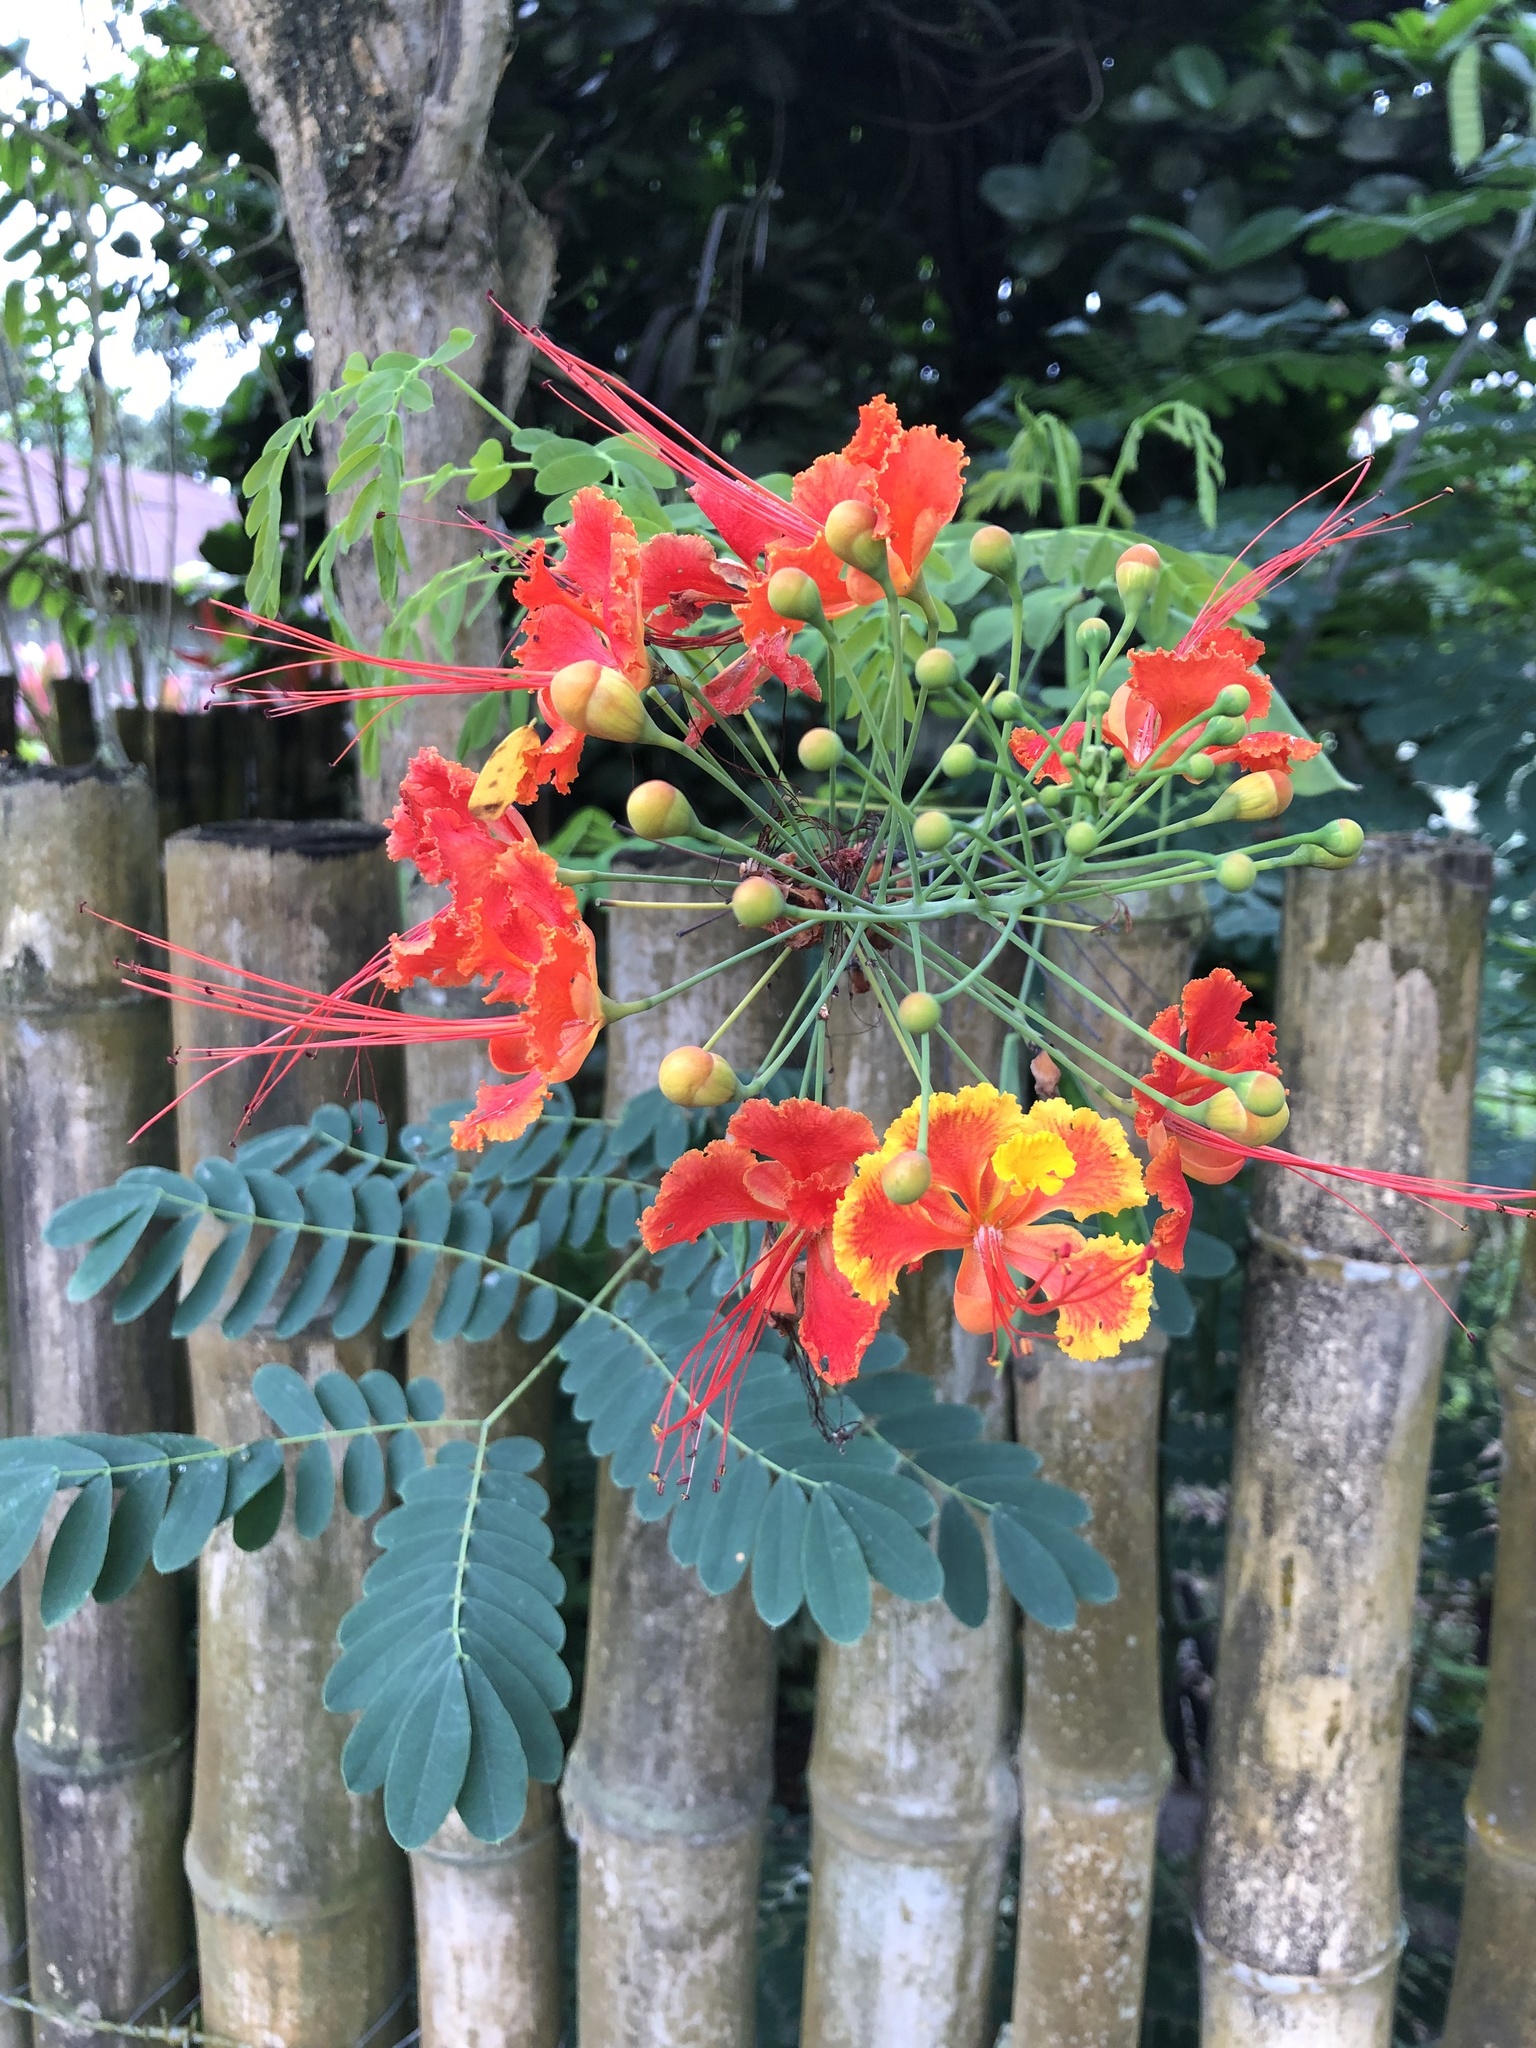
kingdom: Plantae
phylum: Tracheophyta
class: Magnoliopsida
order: Fabales
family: Fabaceae
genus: Caesalpinia
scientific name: Caesalpinia pulcherrima
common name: Pride-of-barbados
